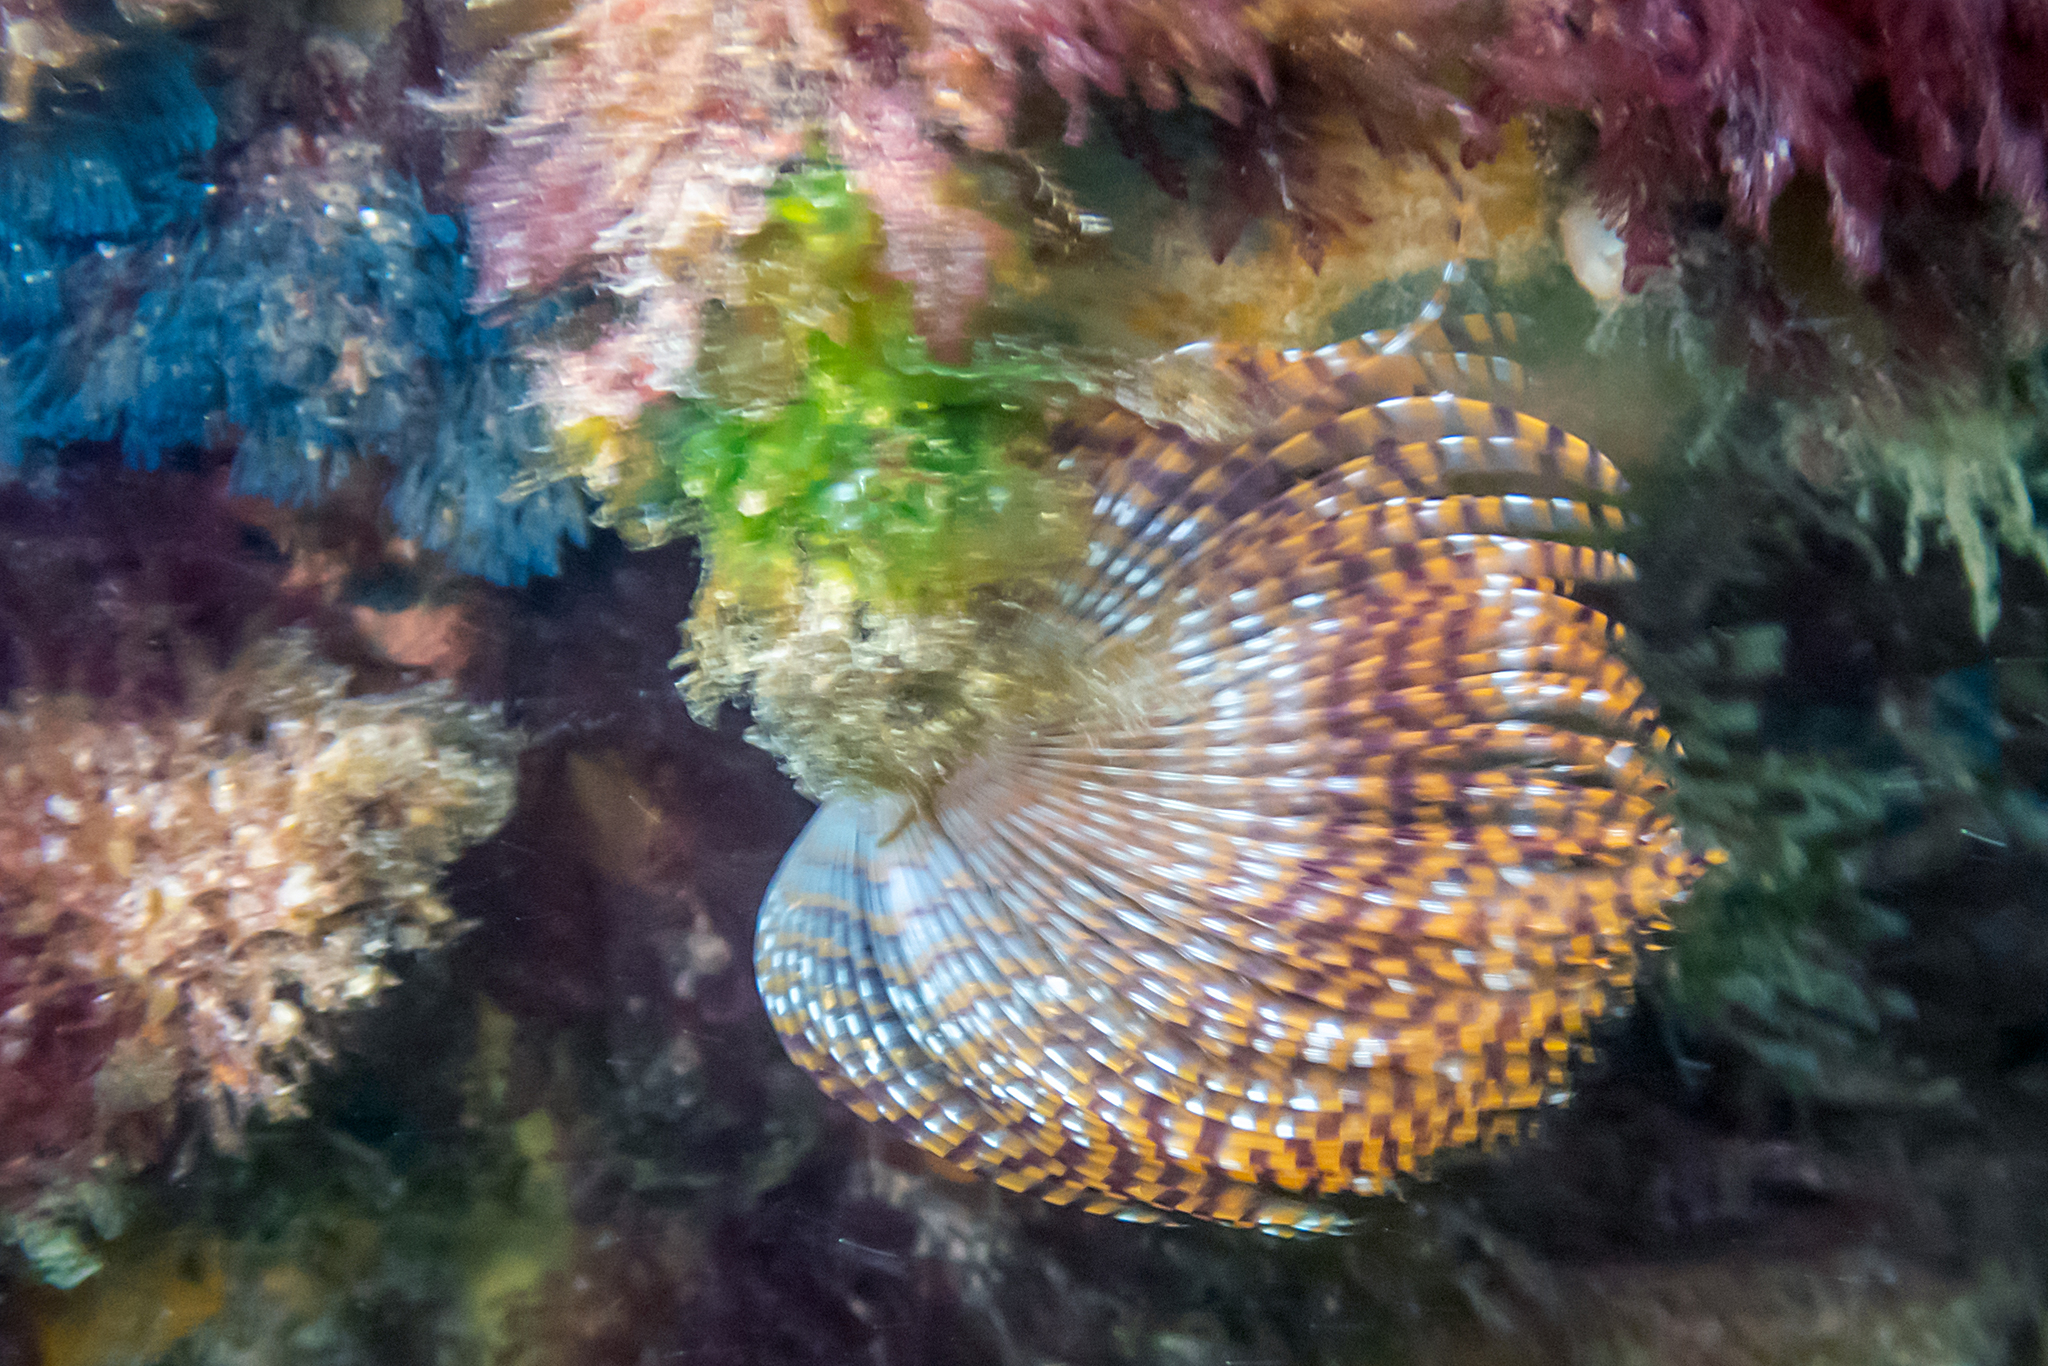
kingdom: Animalia
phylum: Annelida
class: Polychaeta
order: Sabellida
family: Sabellidae
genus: Sabella
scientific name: Sabella spallanzanii
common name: Feather duster worm
